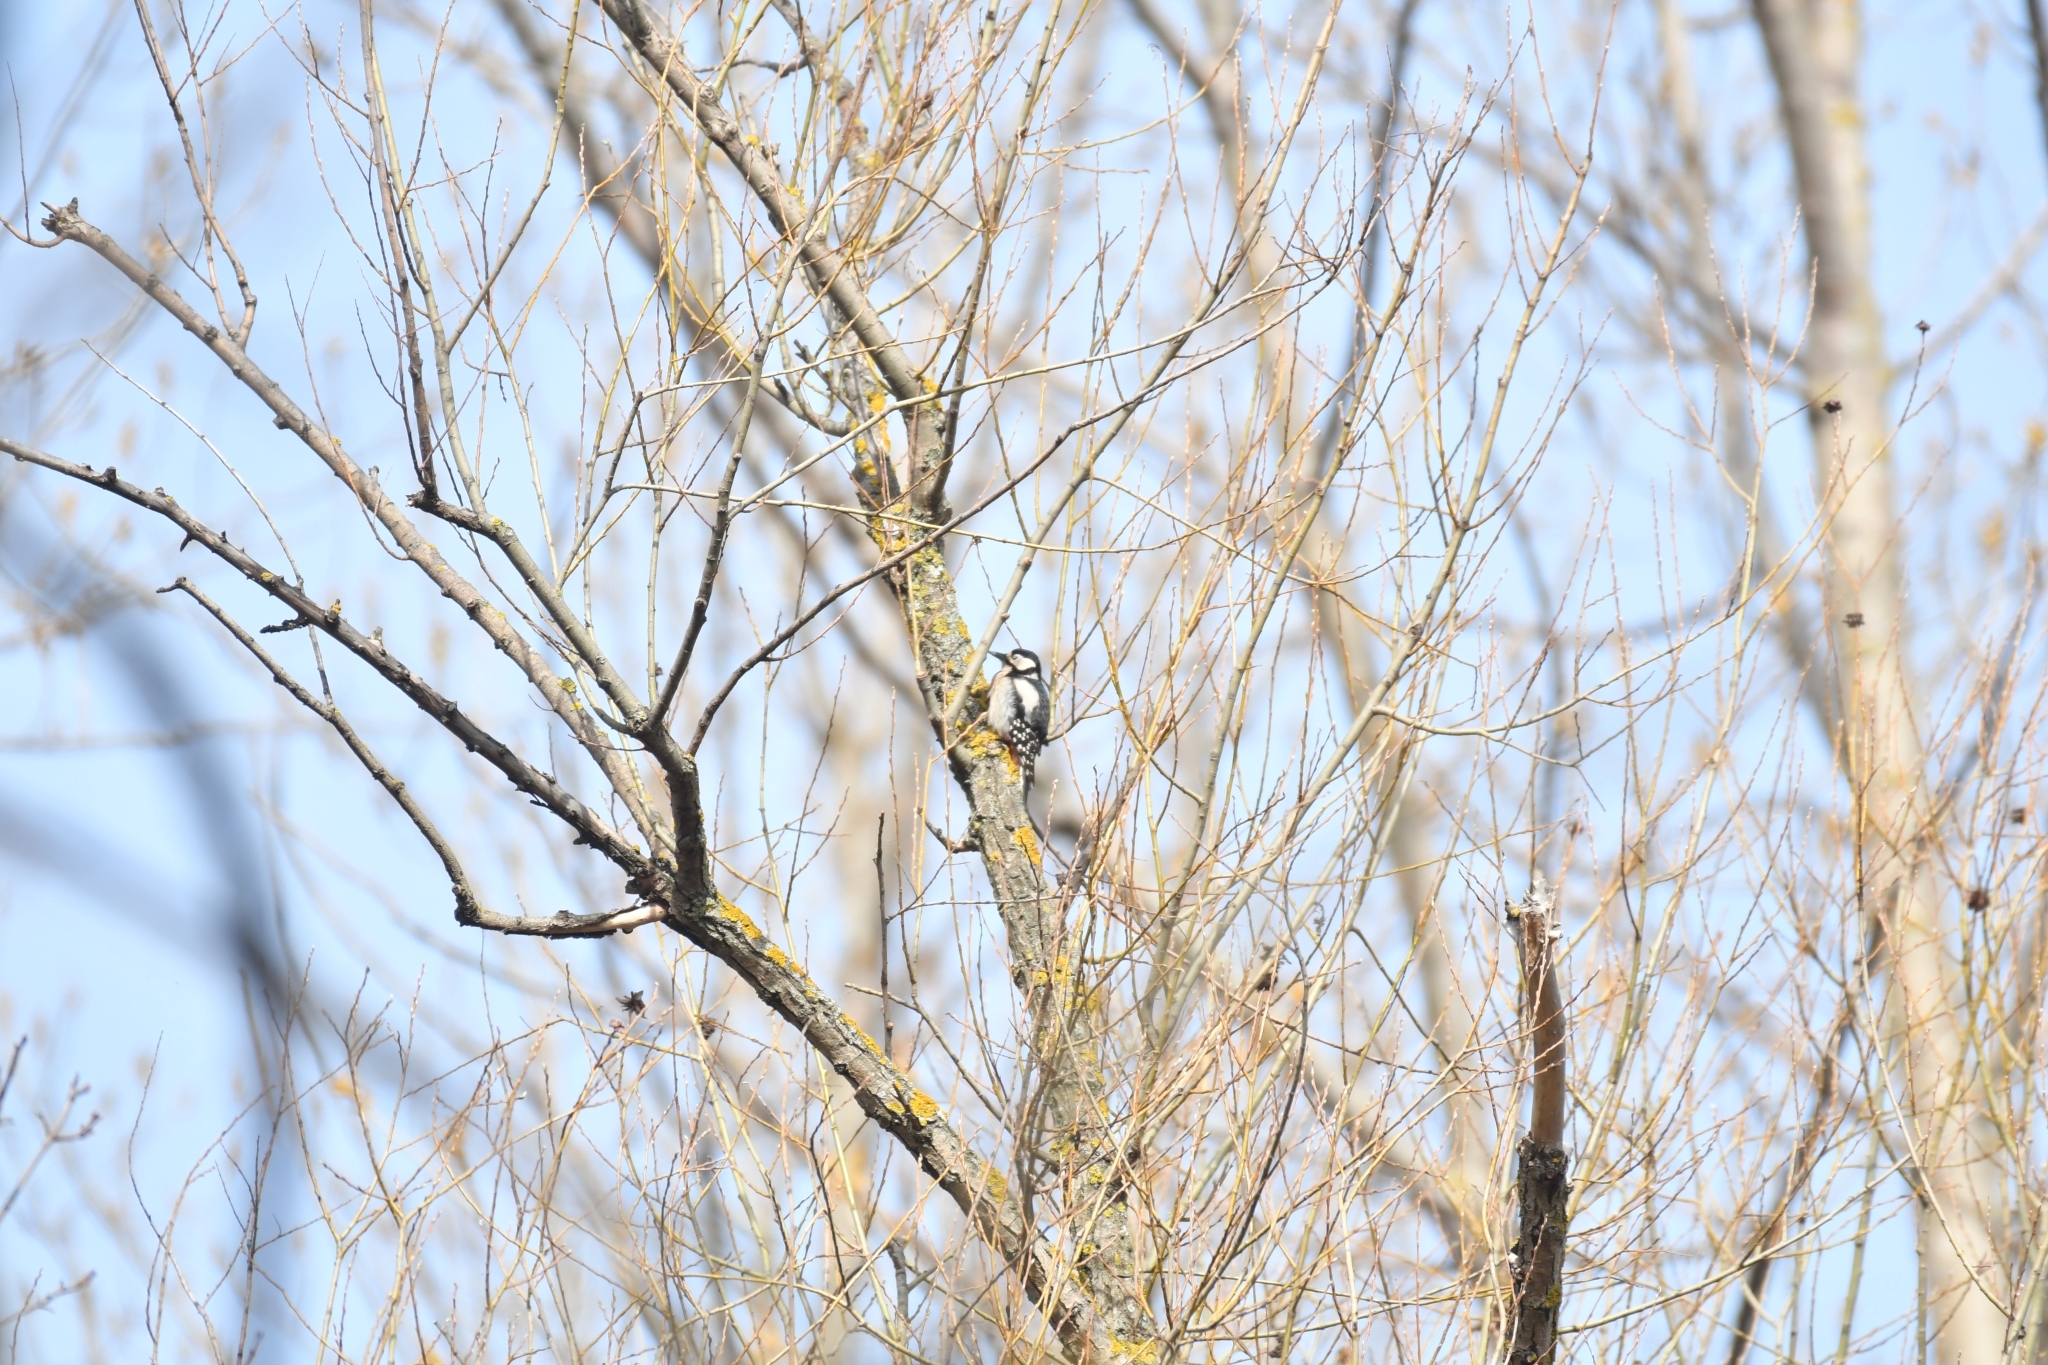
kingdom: Animalia
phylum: Chordata
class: Aves
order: Piciformes
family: Picidae
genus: Dendrocopos
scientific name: Dendrocopos major
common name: Great spotted woodpecker
